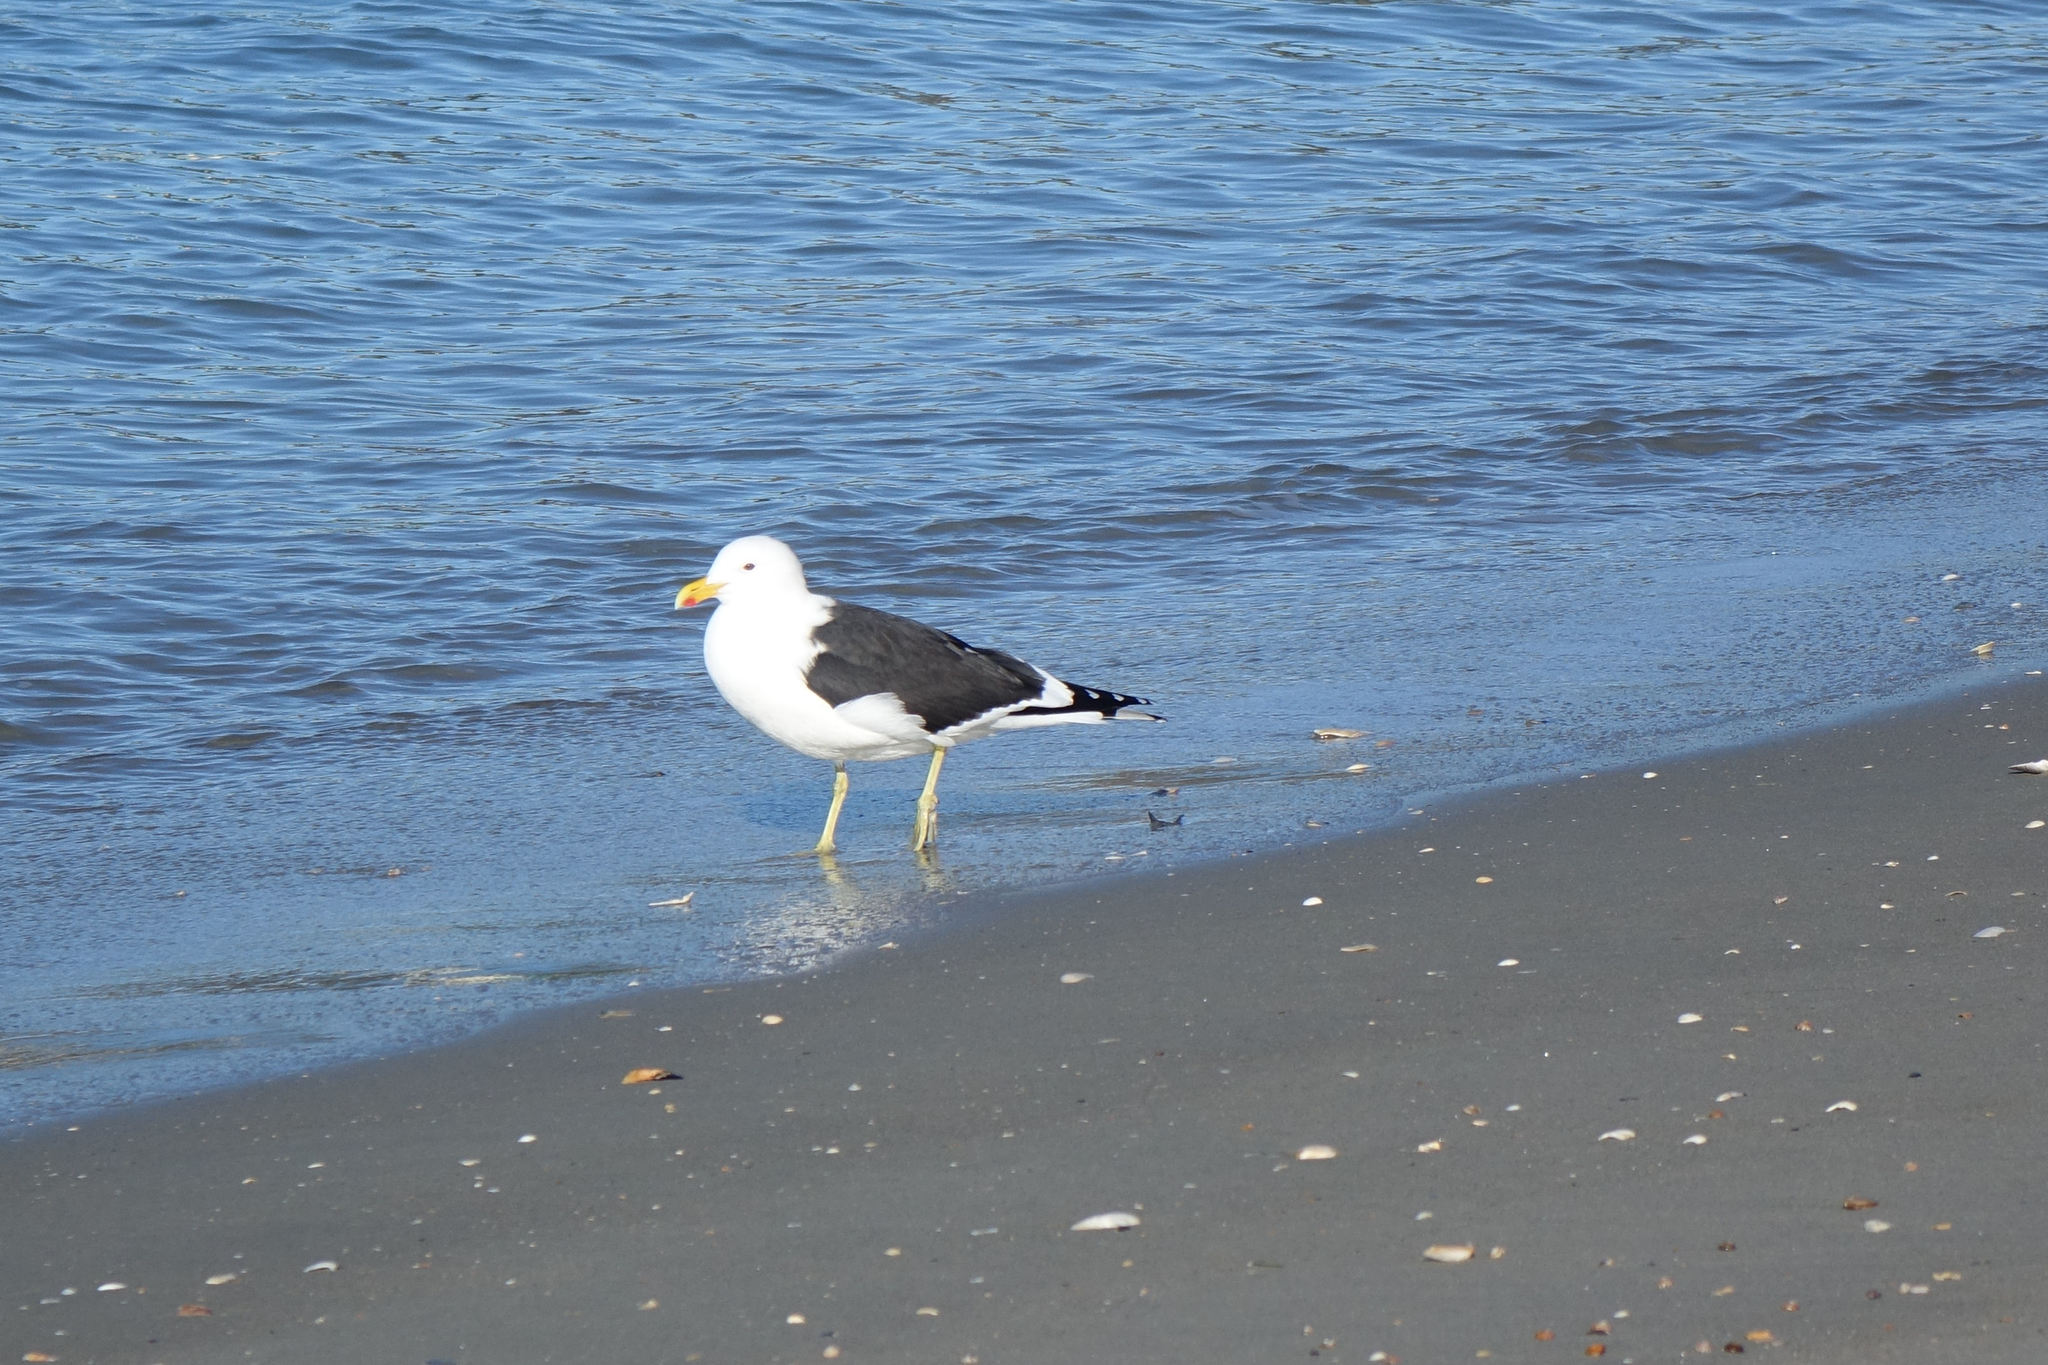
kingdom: Animalia
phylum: Chordata
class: Aves
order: Charadriiformes
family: Laridae
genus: Larus
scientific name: Larus dominicanus
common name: Kelp gull
